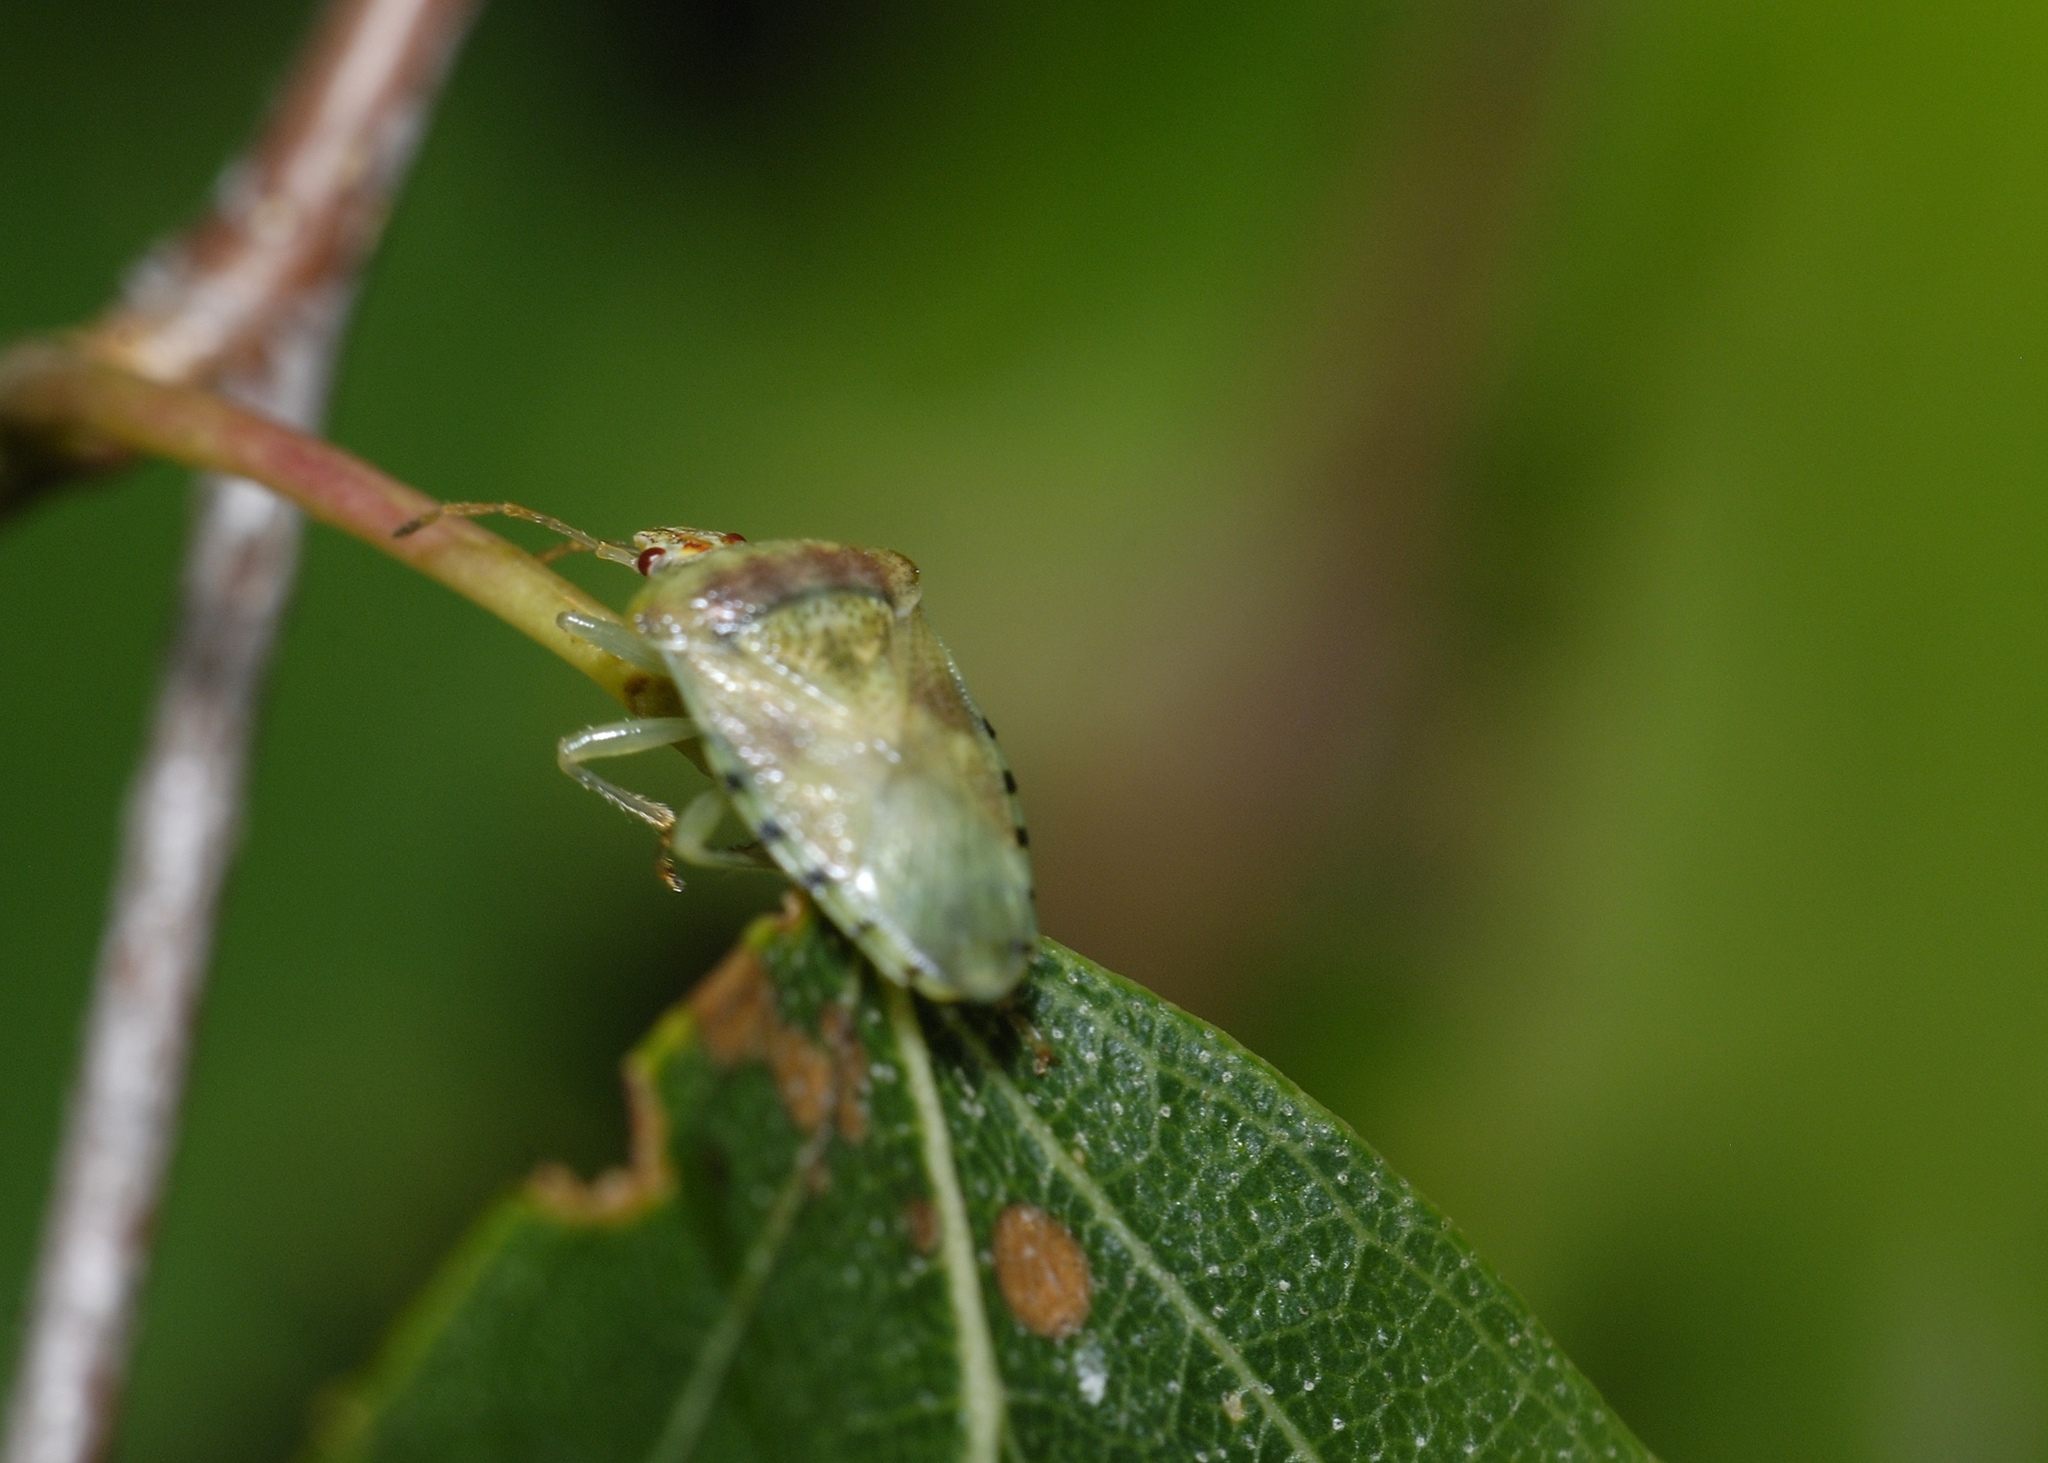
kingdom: Animalia
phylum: Arthropoda
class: Insecta
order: Hemiptera
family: Acanthosomatidae
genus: Elasmucha
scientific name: Elasmucha grisea
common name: Parent bug
